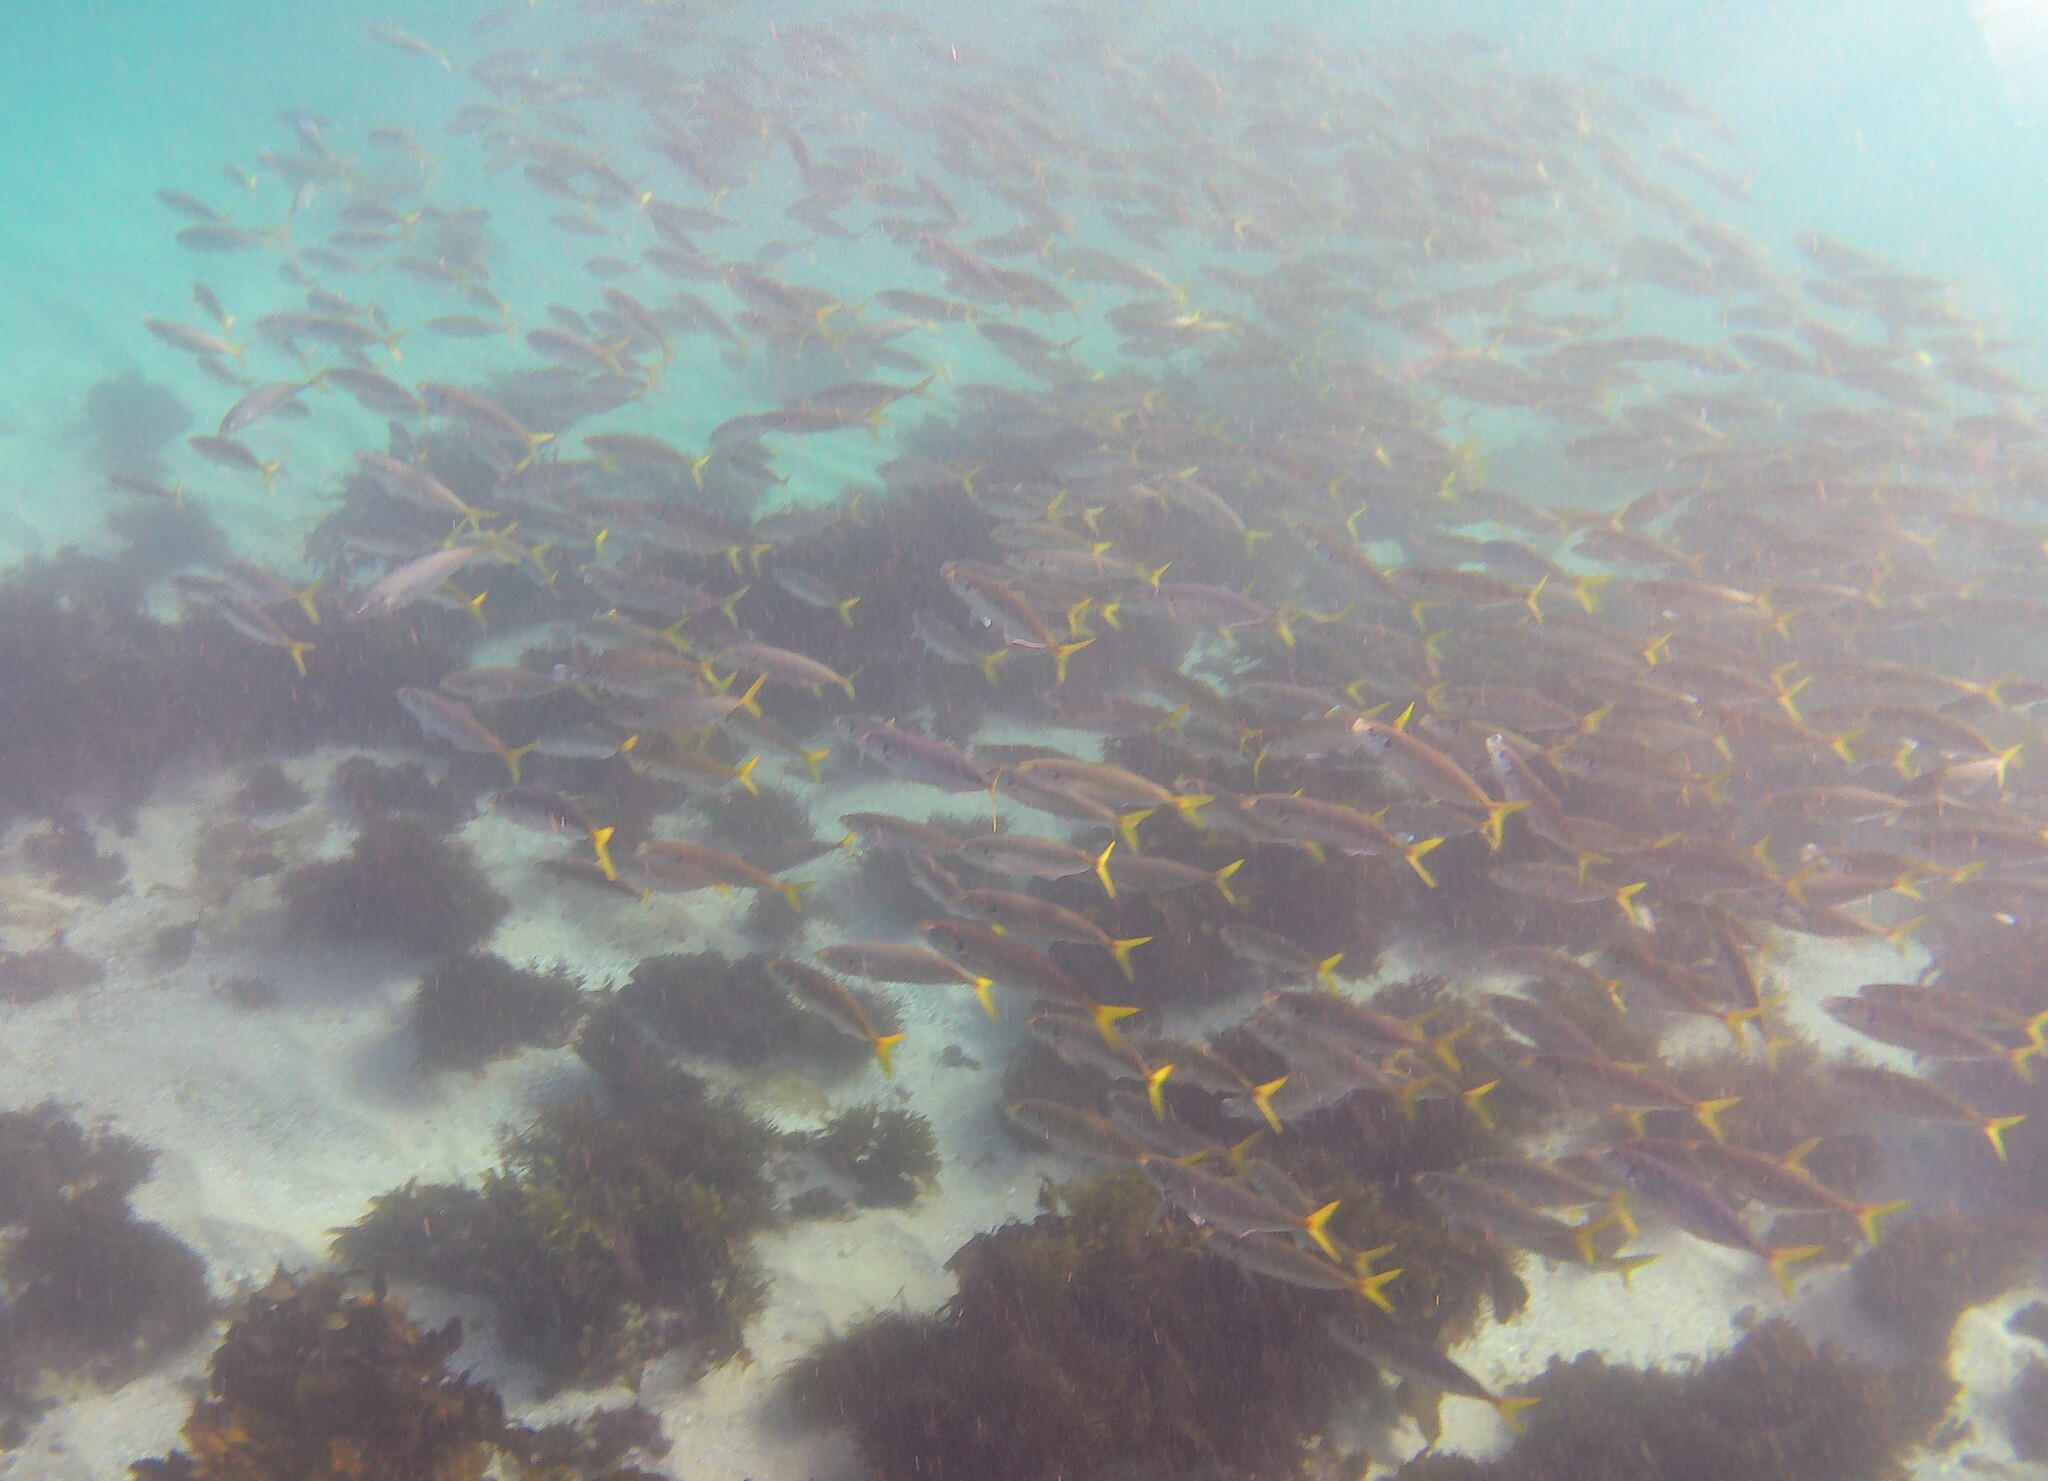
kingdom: Animalia
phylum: Chordata
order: Perciformes
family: Carangidae
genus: Trachurus
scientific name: Trachurus novaezelandiae
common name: Yellowtail horse mackerel
